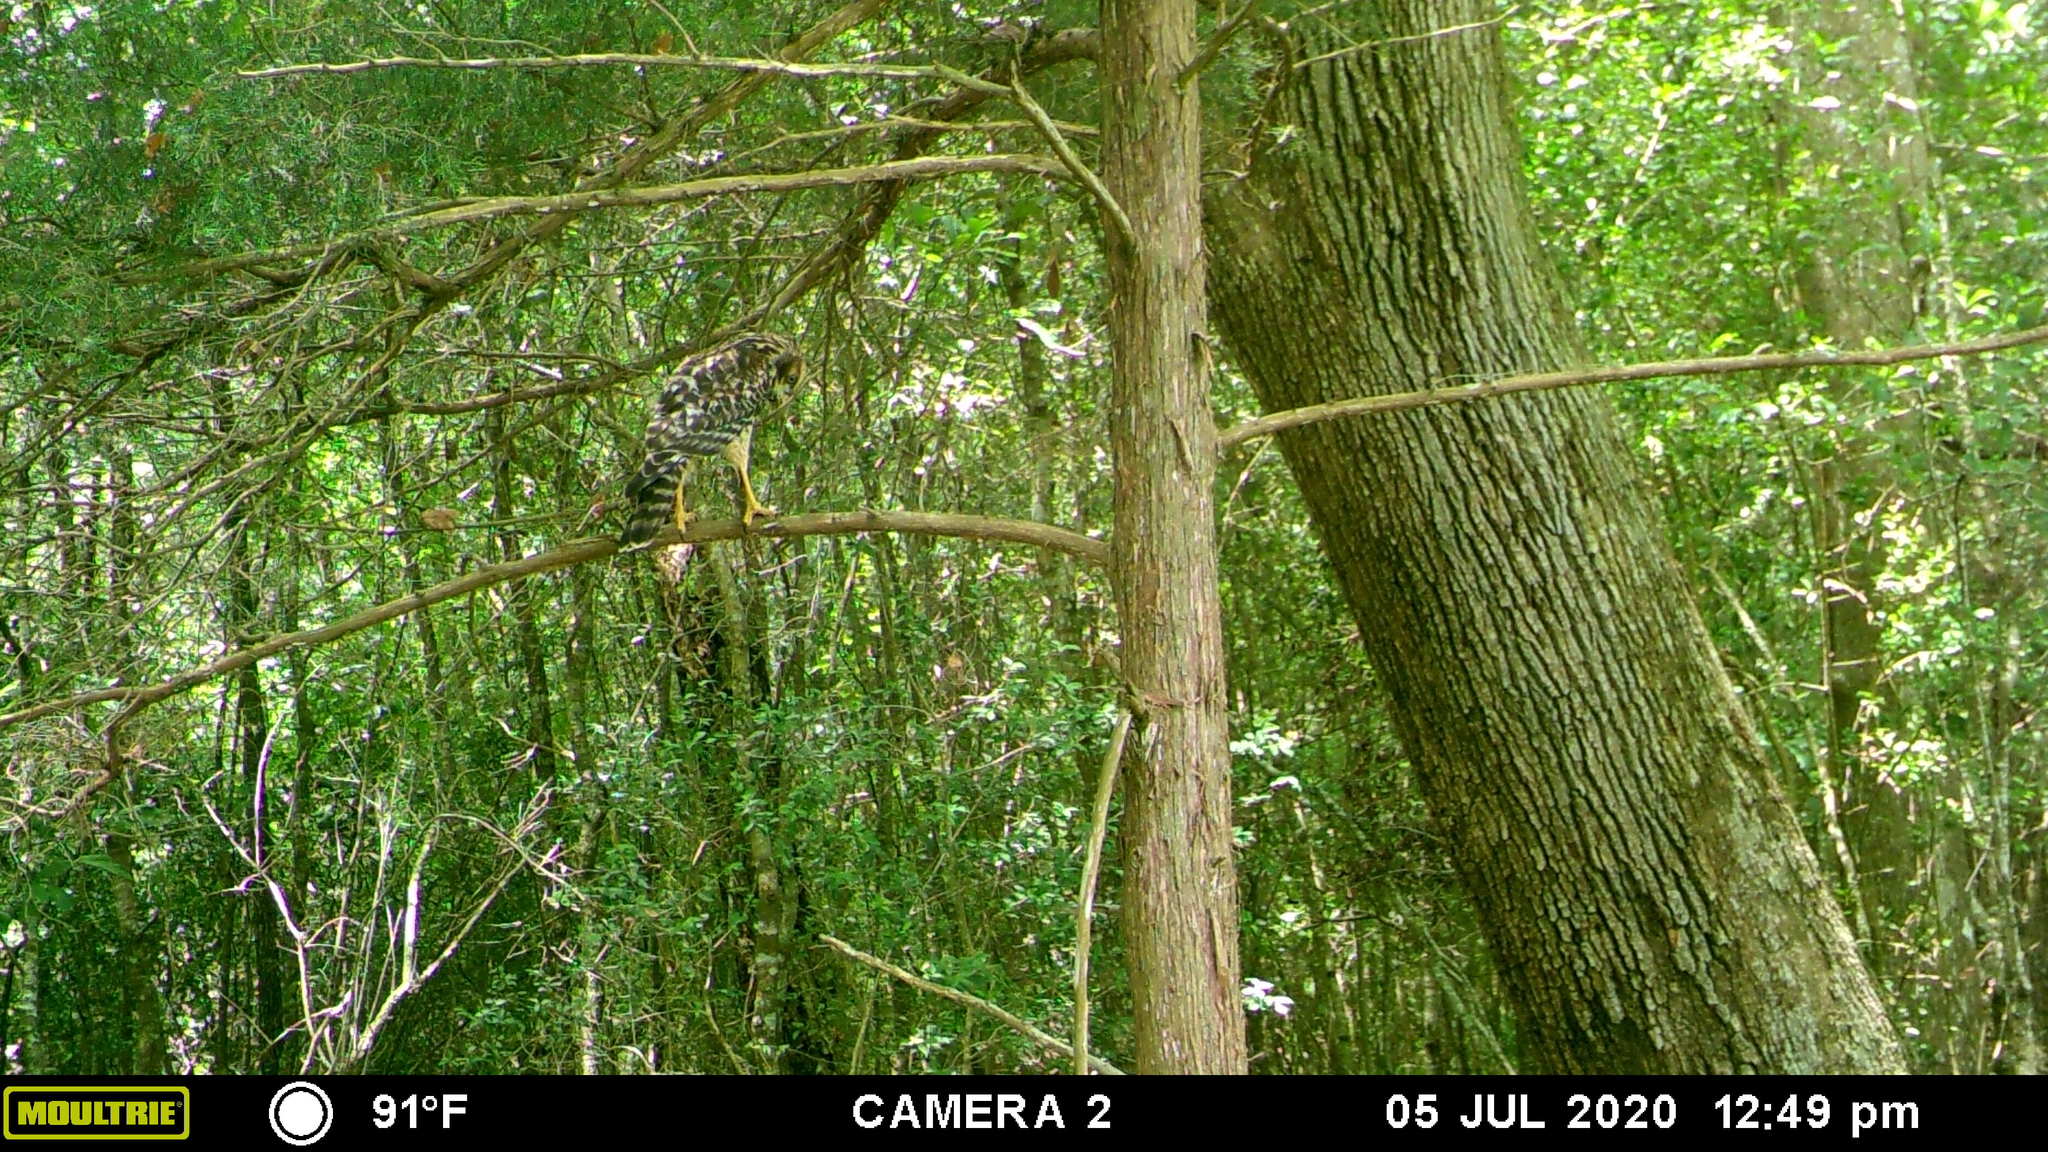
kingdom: Animalia
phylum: Chordata
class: Aves
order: Accipitriformes
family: Accipitridae
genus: Buteo
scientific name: Buteo lineatus
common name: Red-shouldered hawk
